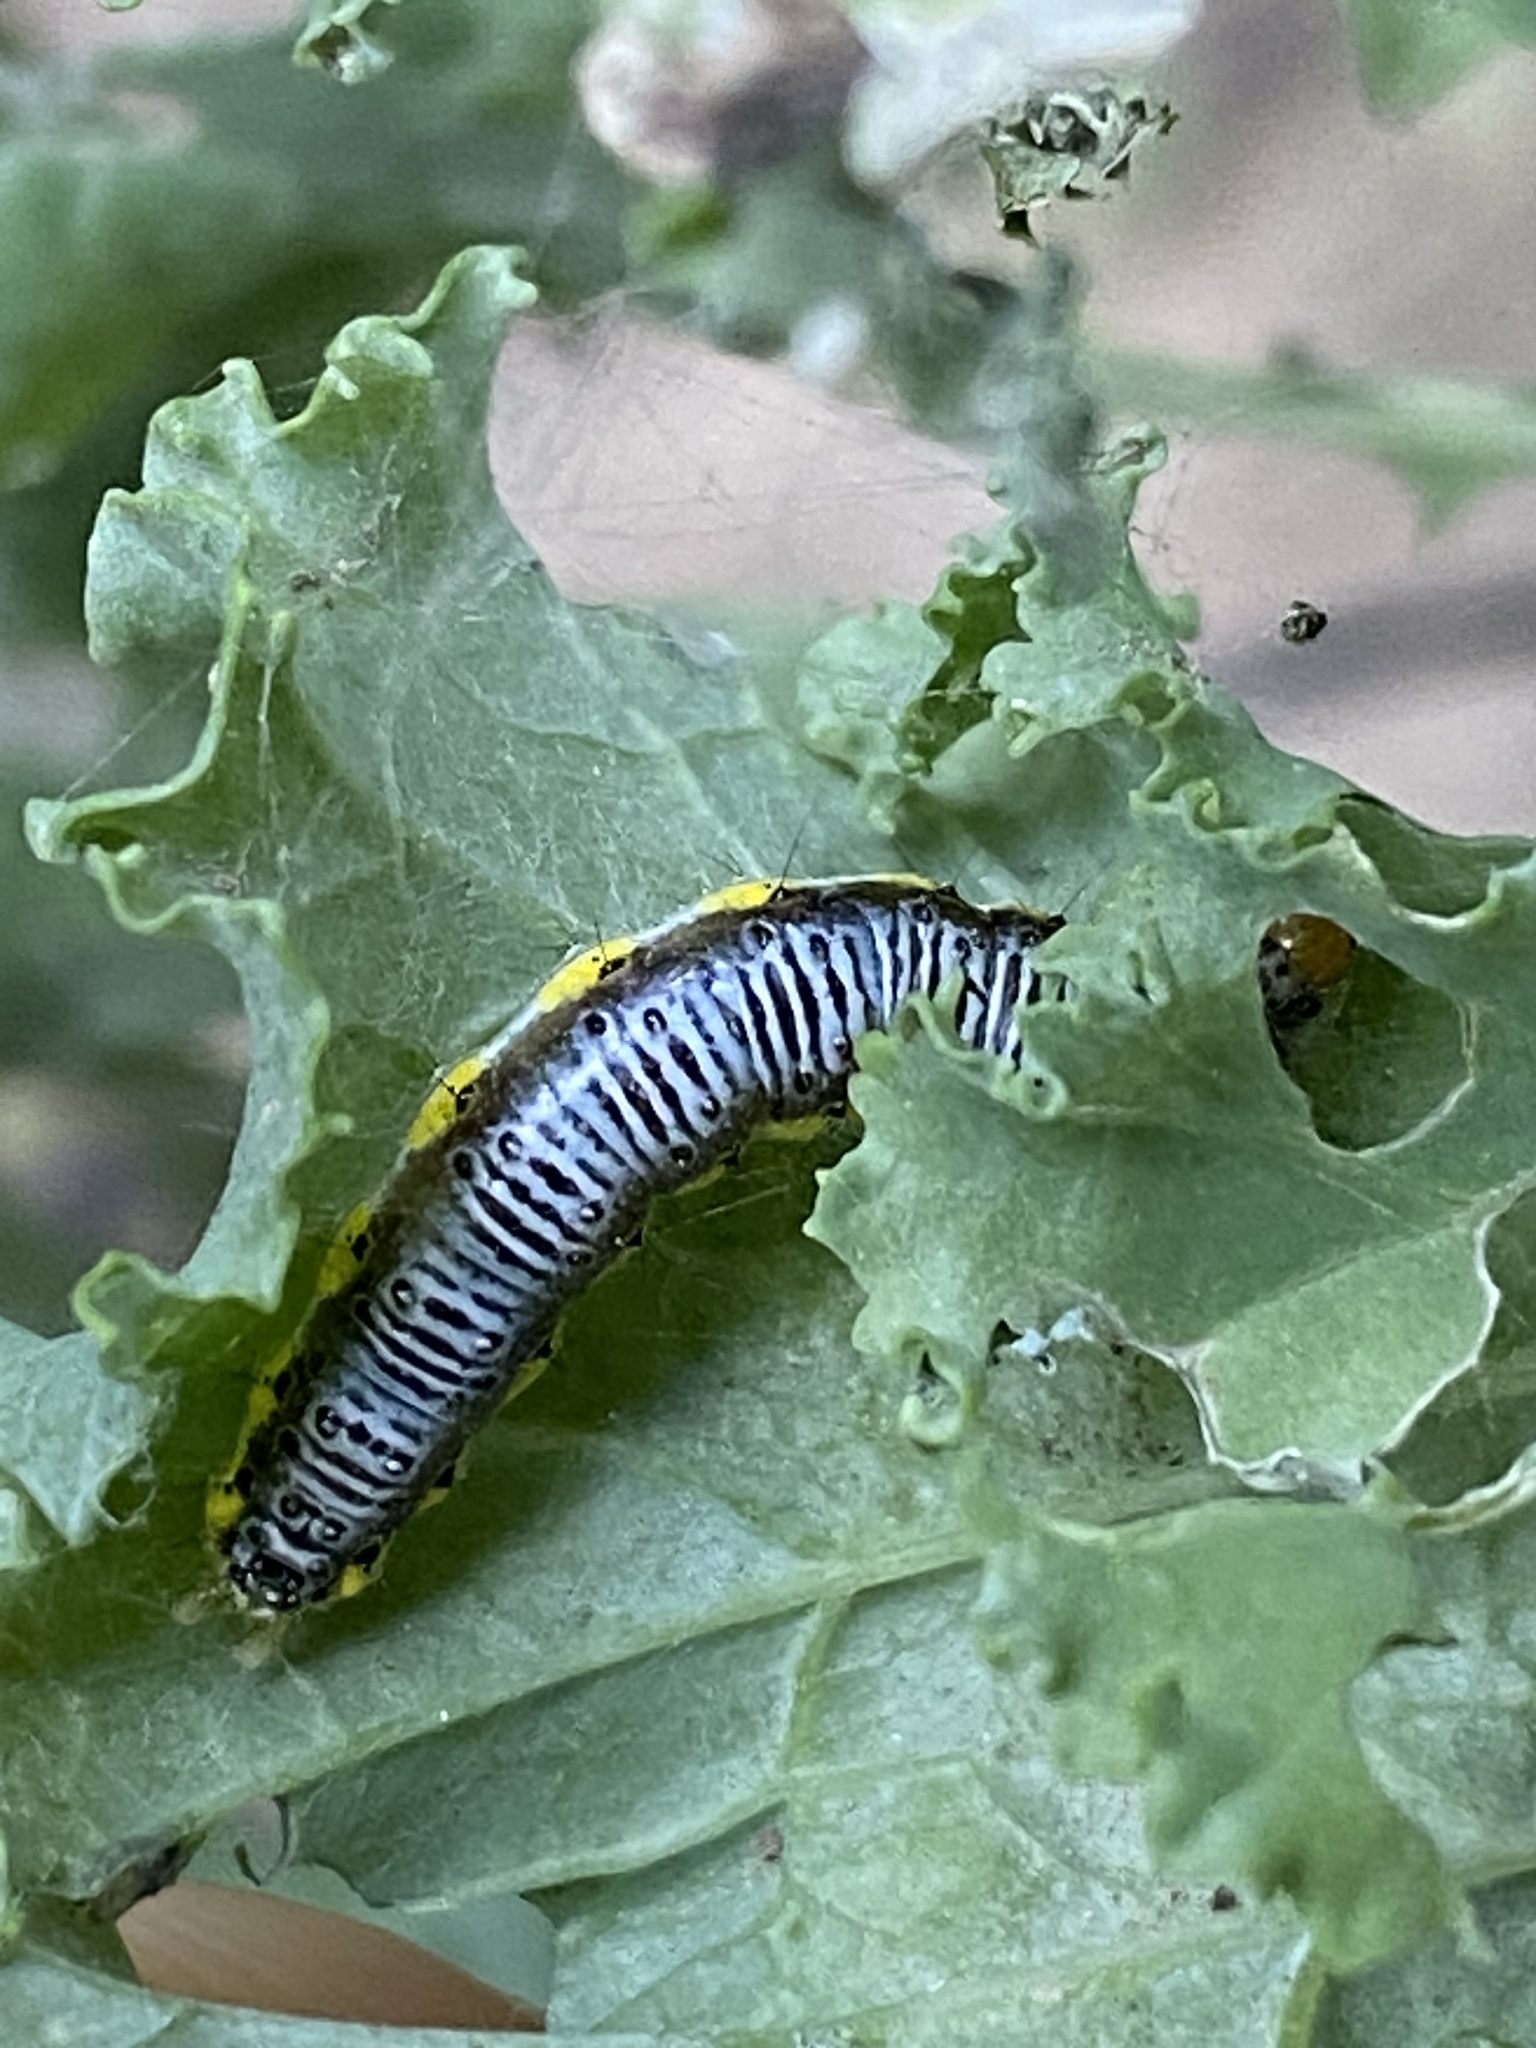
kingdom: Animalia
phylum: Arthropoda
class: Insecta
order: Lepidoptera
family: Crambidae
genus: Evergestis
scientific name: Evergestis rimosalis
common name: Cross-striped cabbageworm moth
